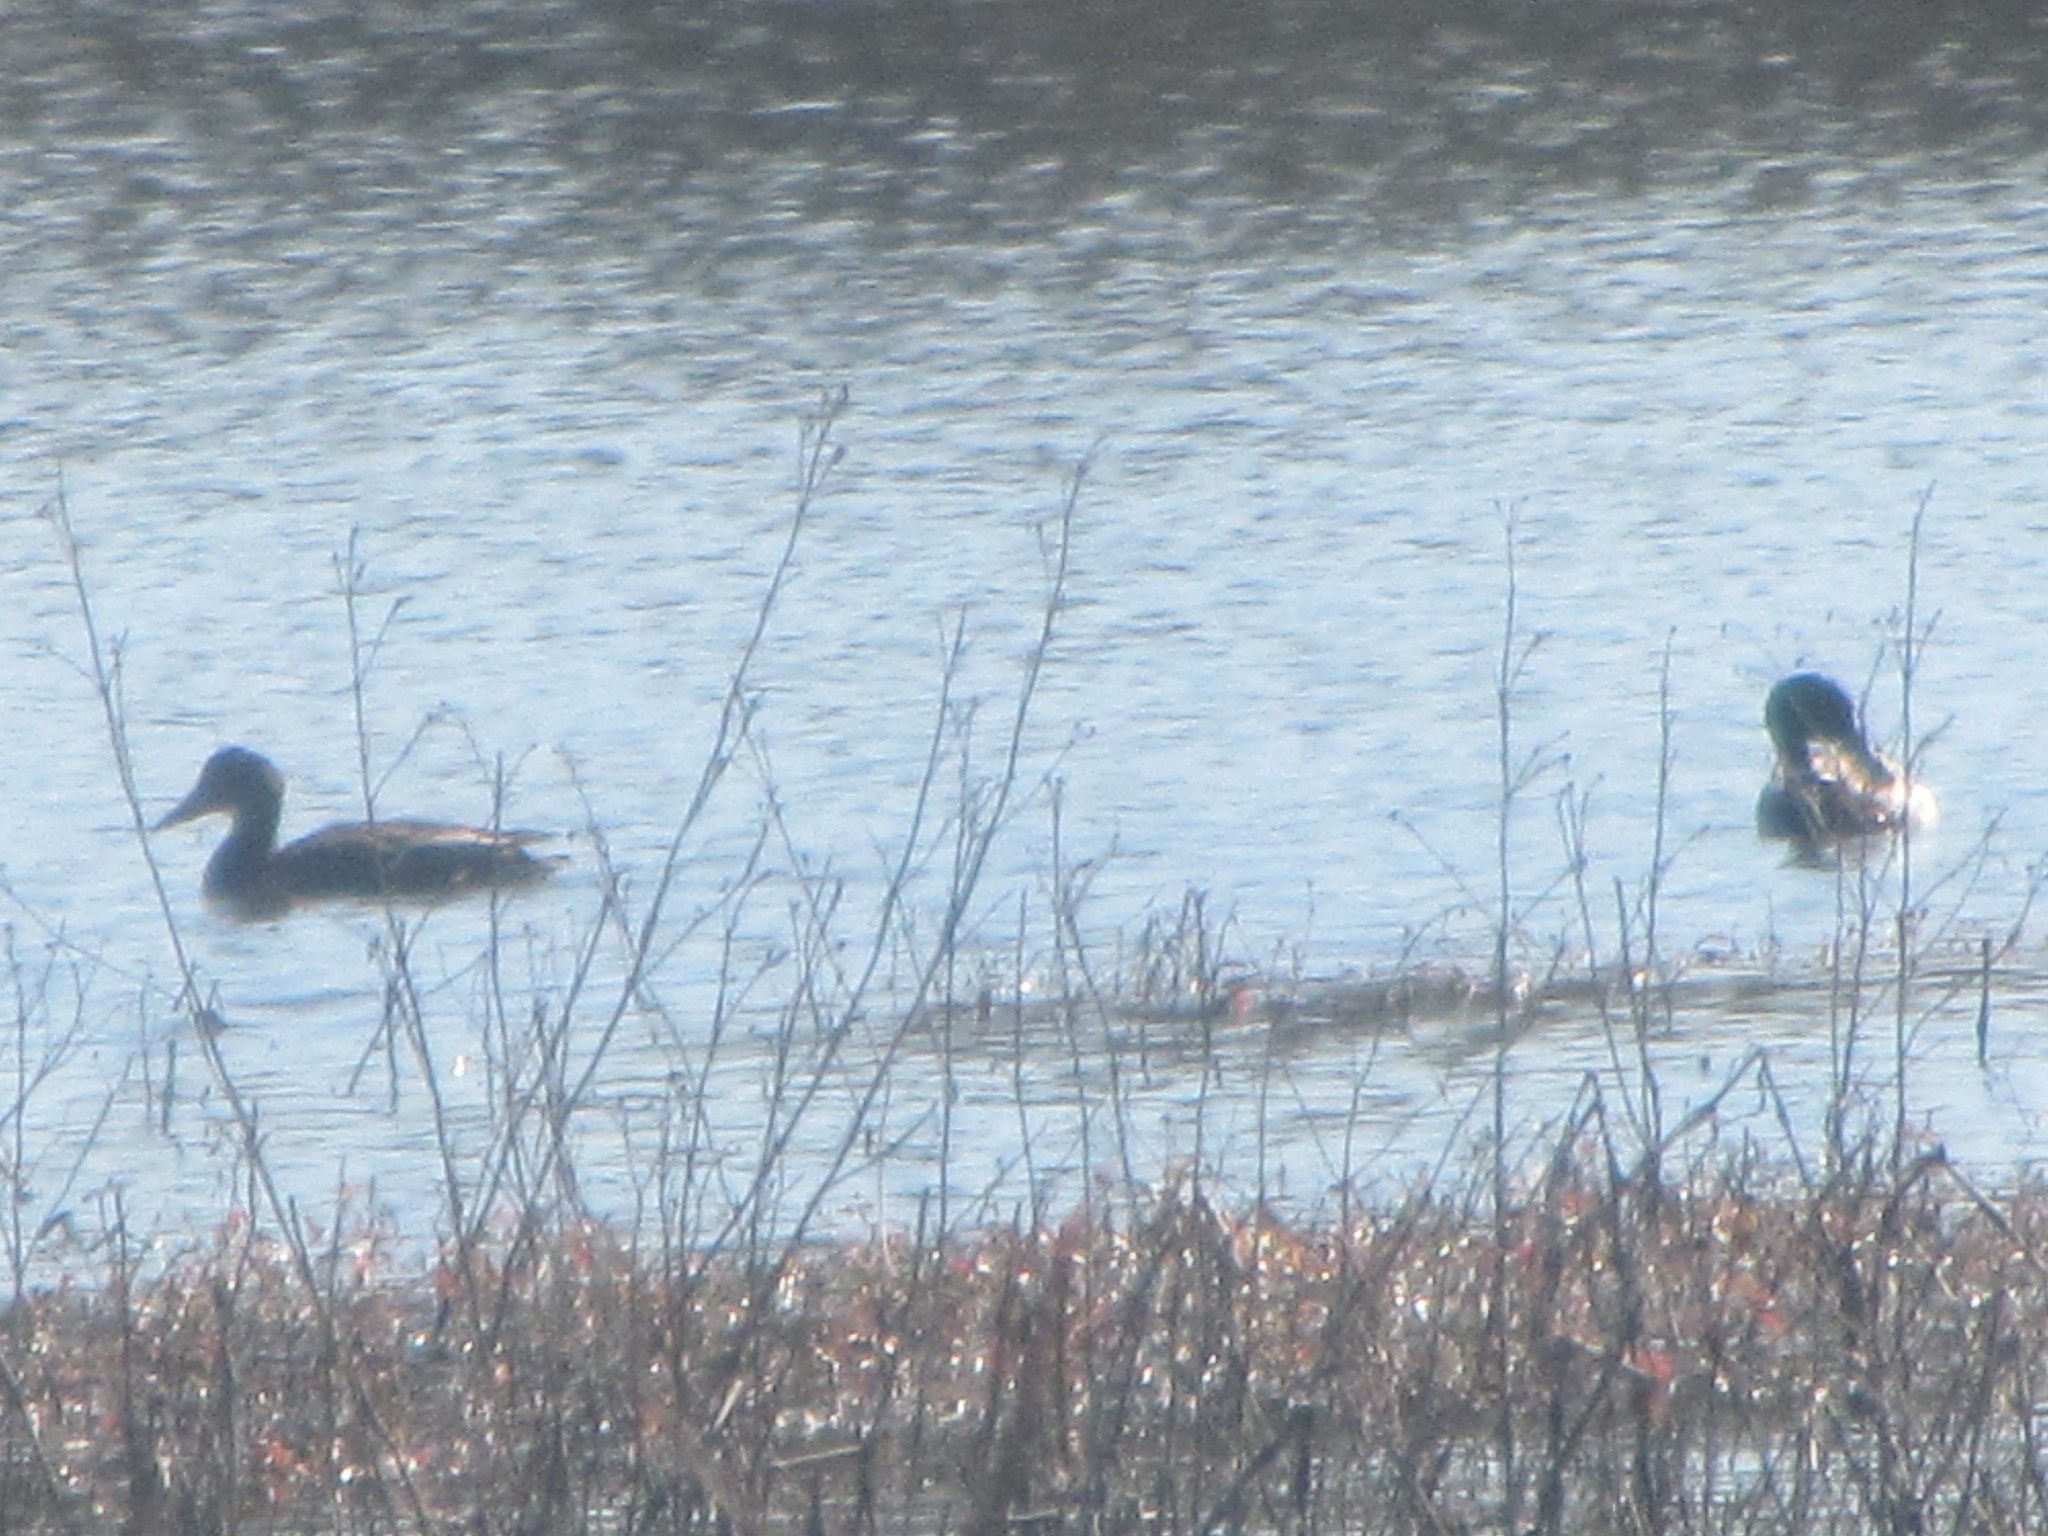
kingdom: Animalia
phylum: Chordata
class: Aves
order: Anseriformes
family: Anatidae
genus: Mareca
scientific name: Mareca strepera
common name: Gadwall
